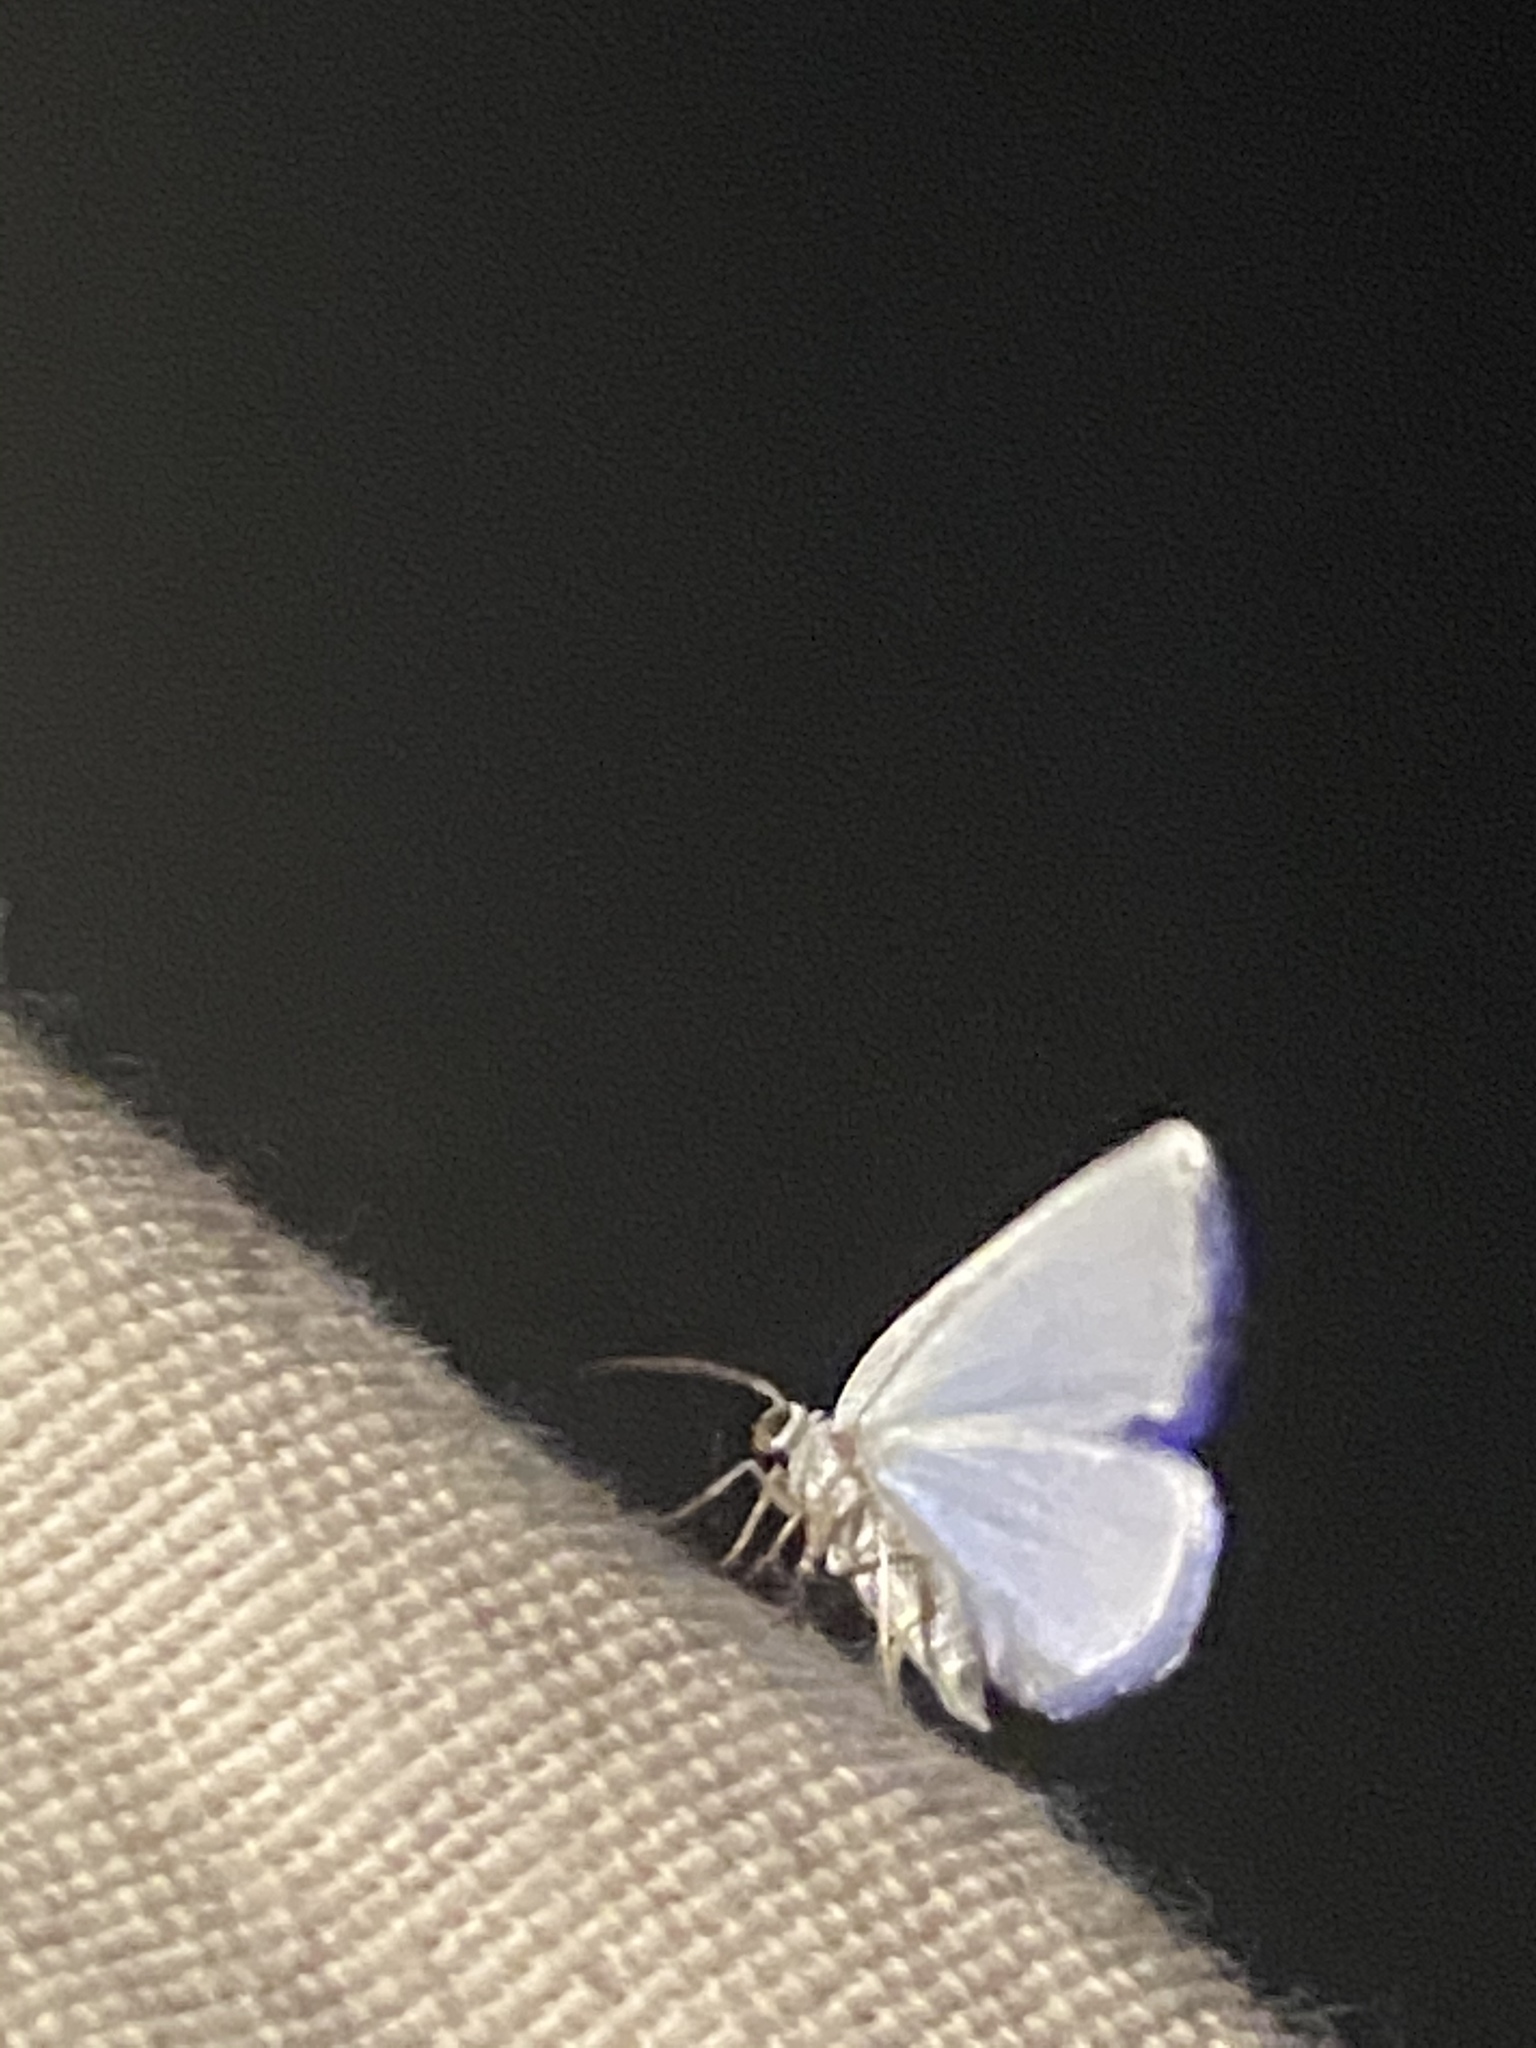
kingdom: Animalia
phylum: Arthropoda
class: Insecta
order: Lepidoptera
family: Geometridae
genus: Lomographa
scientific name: Lomographa vestaliata
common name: White spring moth
